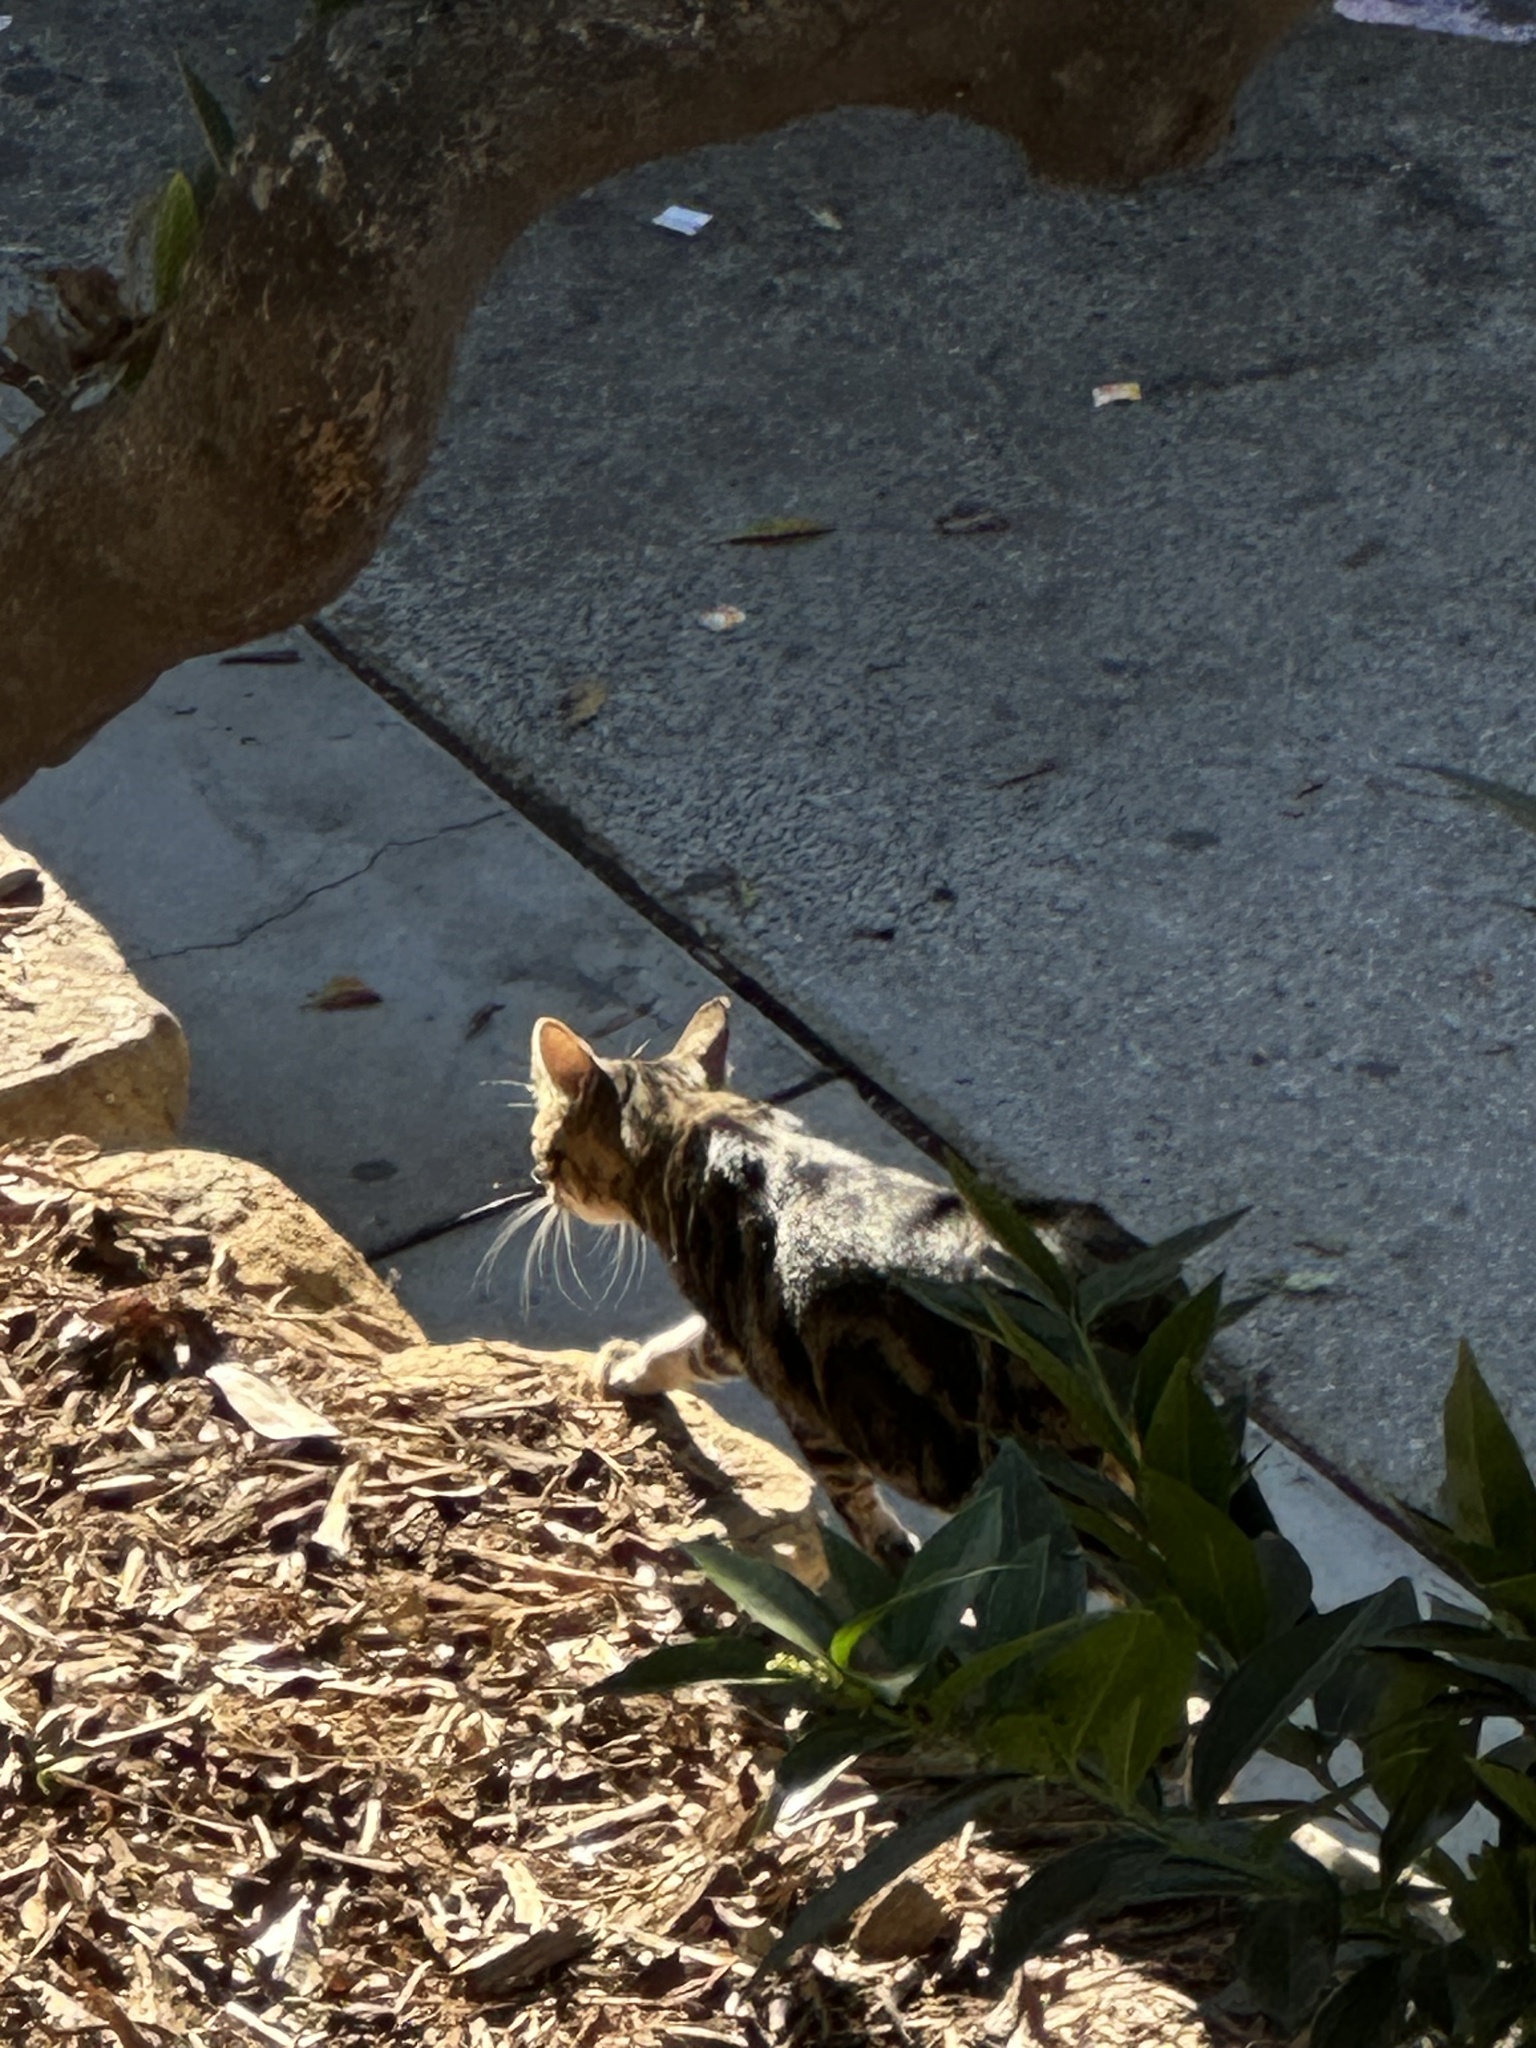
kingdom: Animalia
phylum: Chordata
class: Mammalia
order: Carnivora
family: Felidae
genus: Felis
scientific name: Felis catus
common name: Domestic cat
